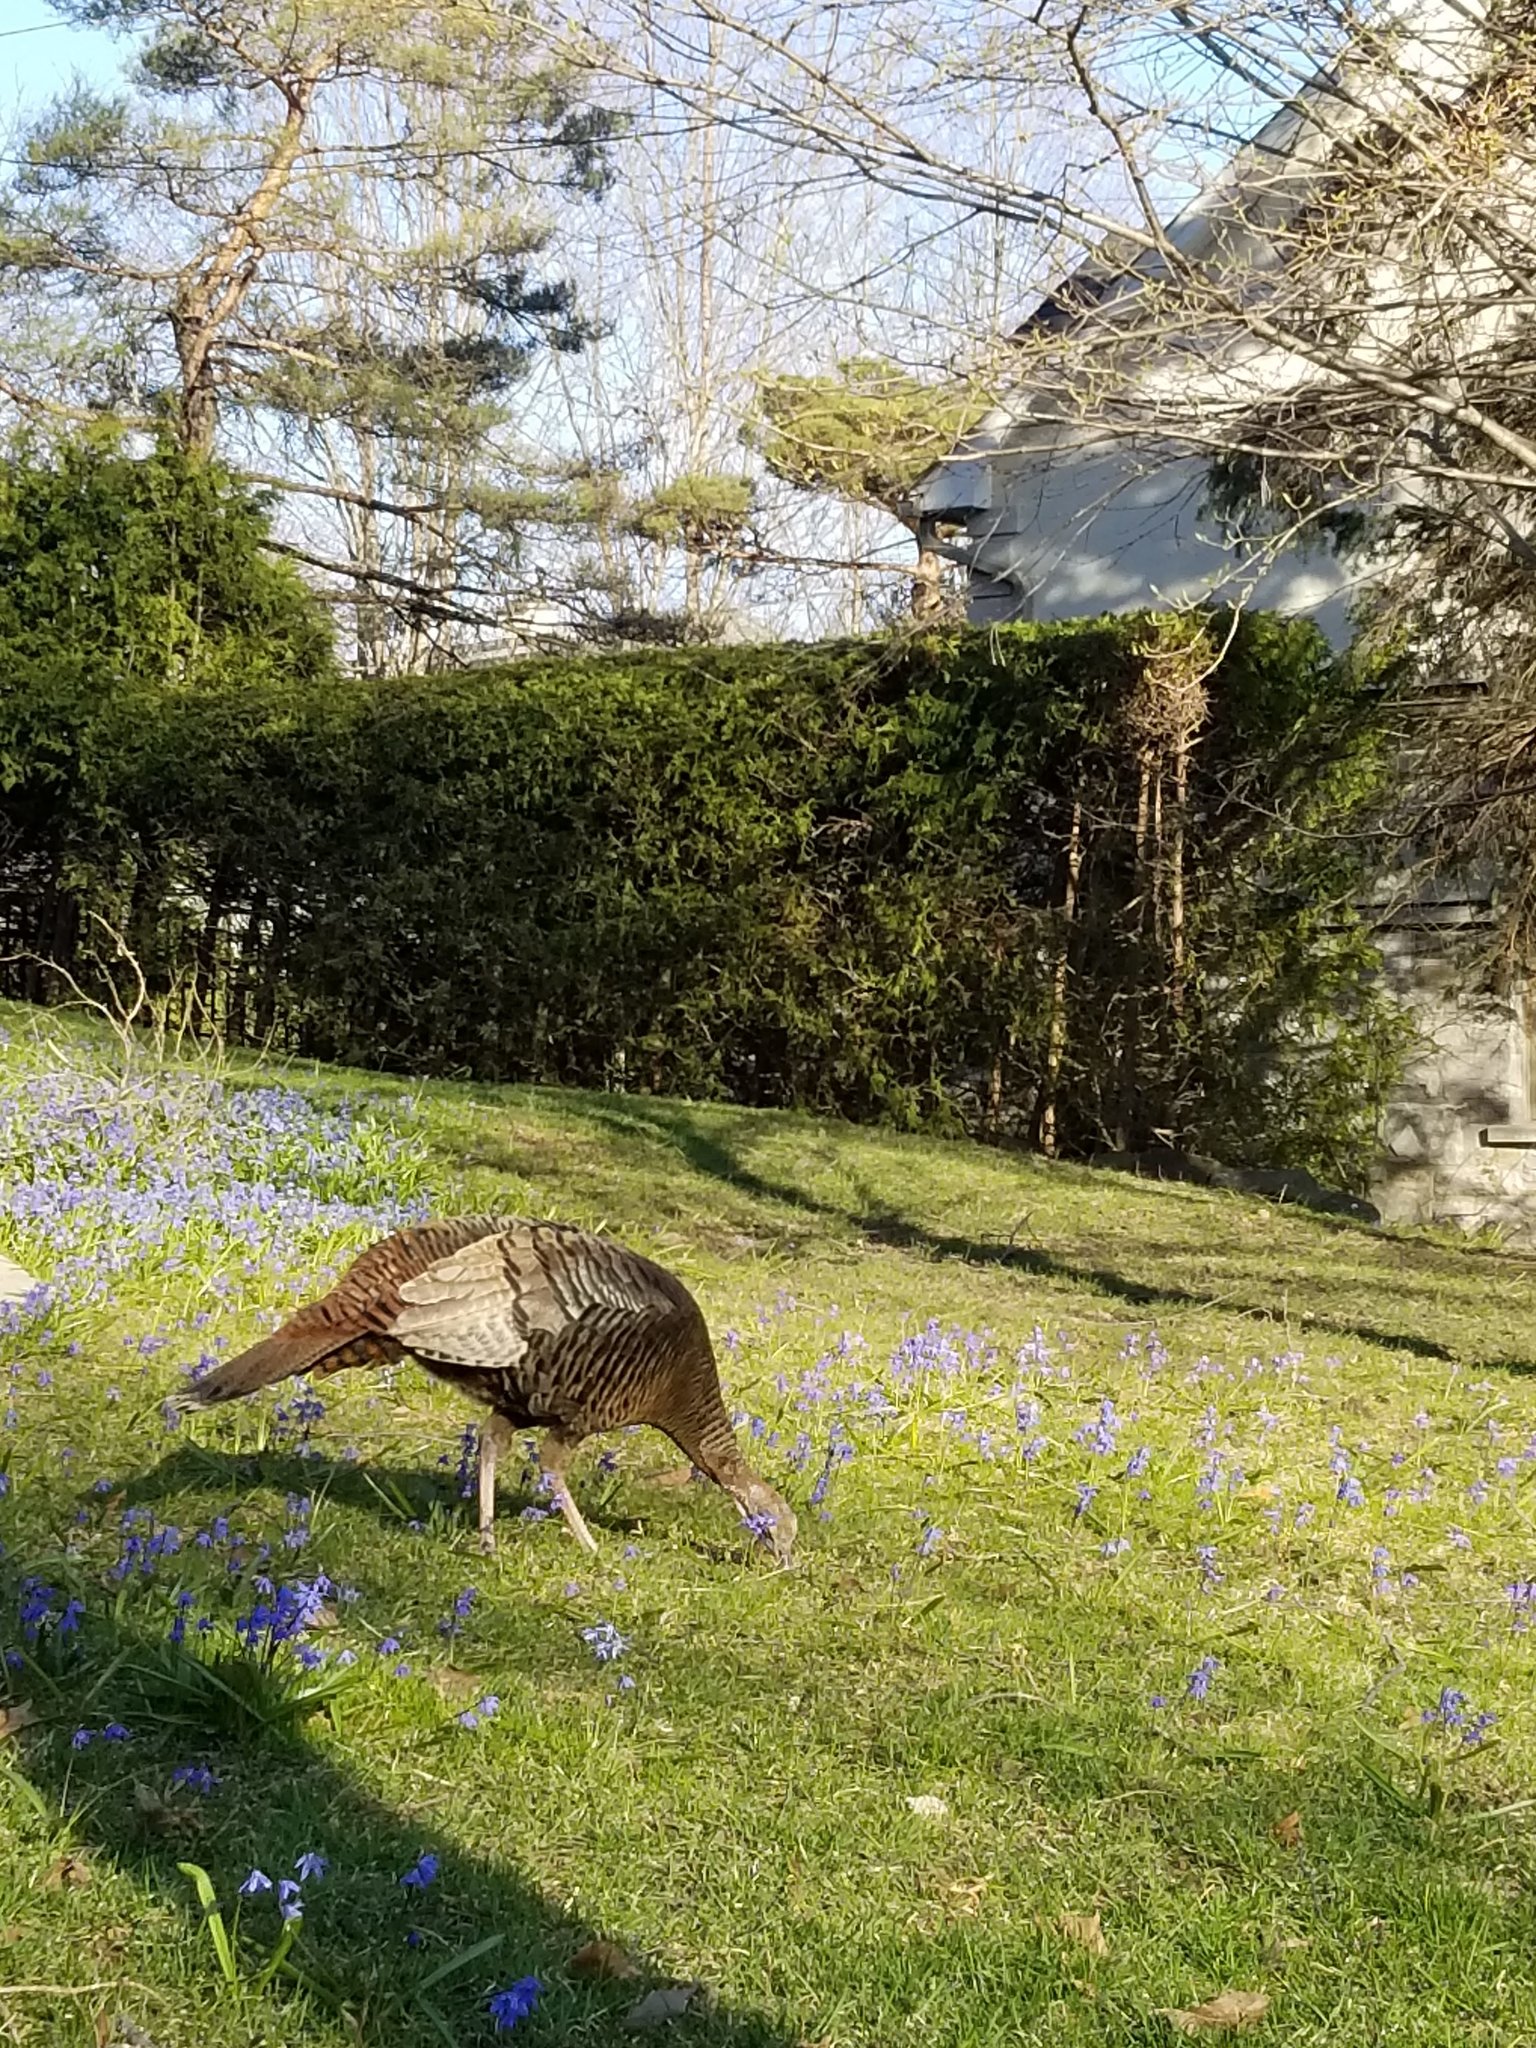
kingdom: Animalia
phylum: Chordata
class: Aves
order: Galliformes
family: Phasianidae
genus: Meleagris
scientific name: Meleagris gallopavo
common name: Wild turkey
